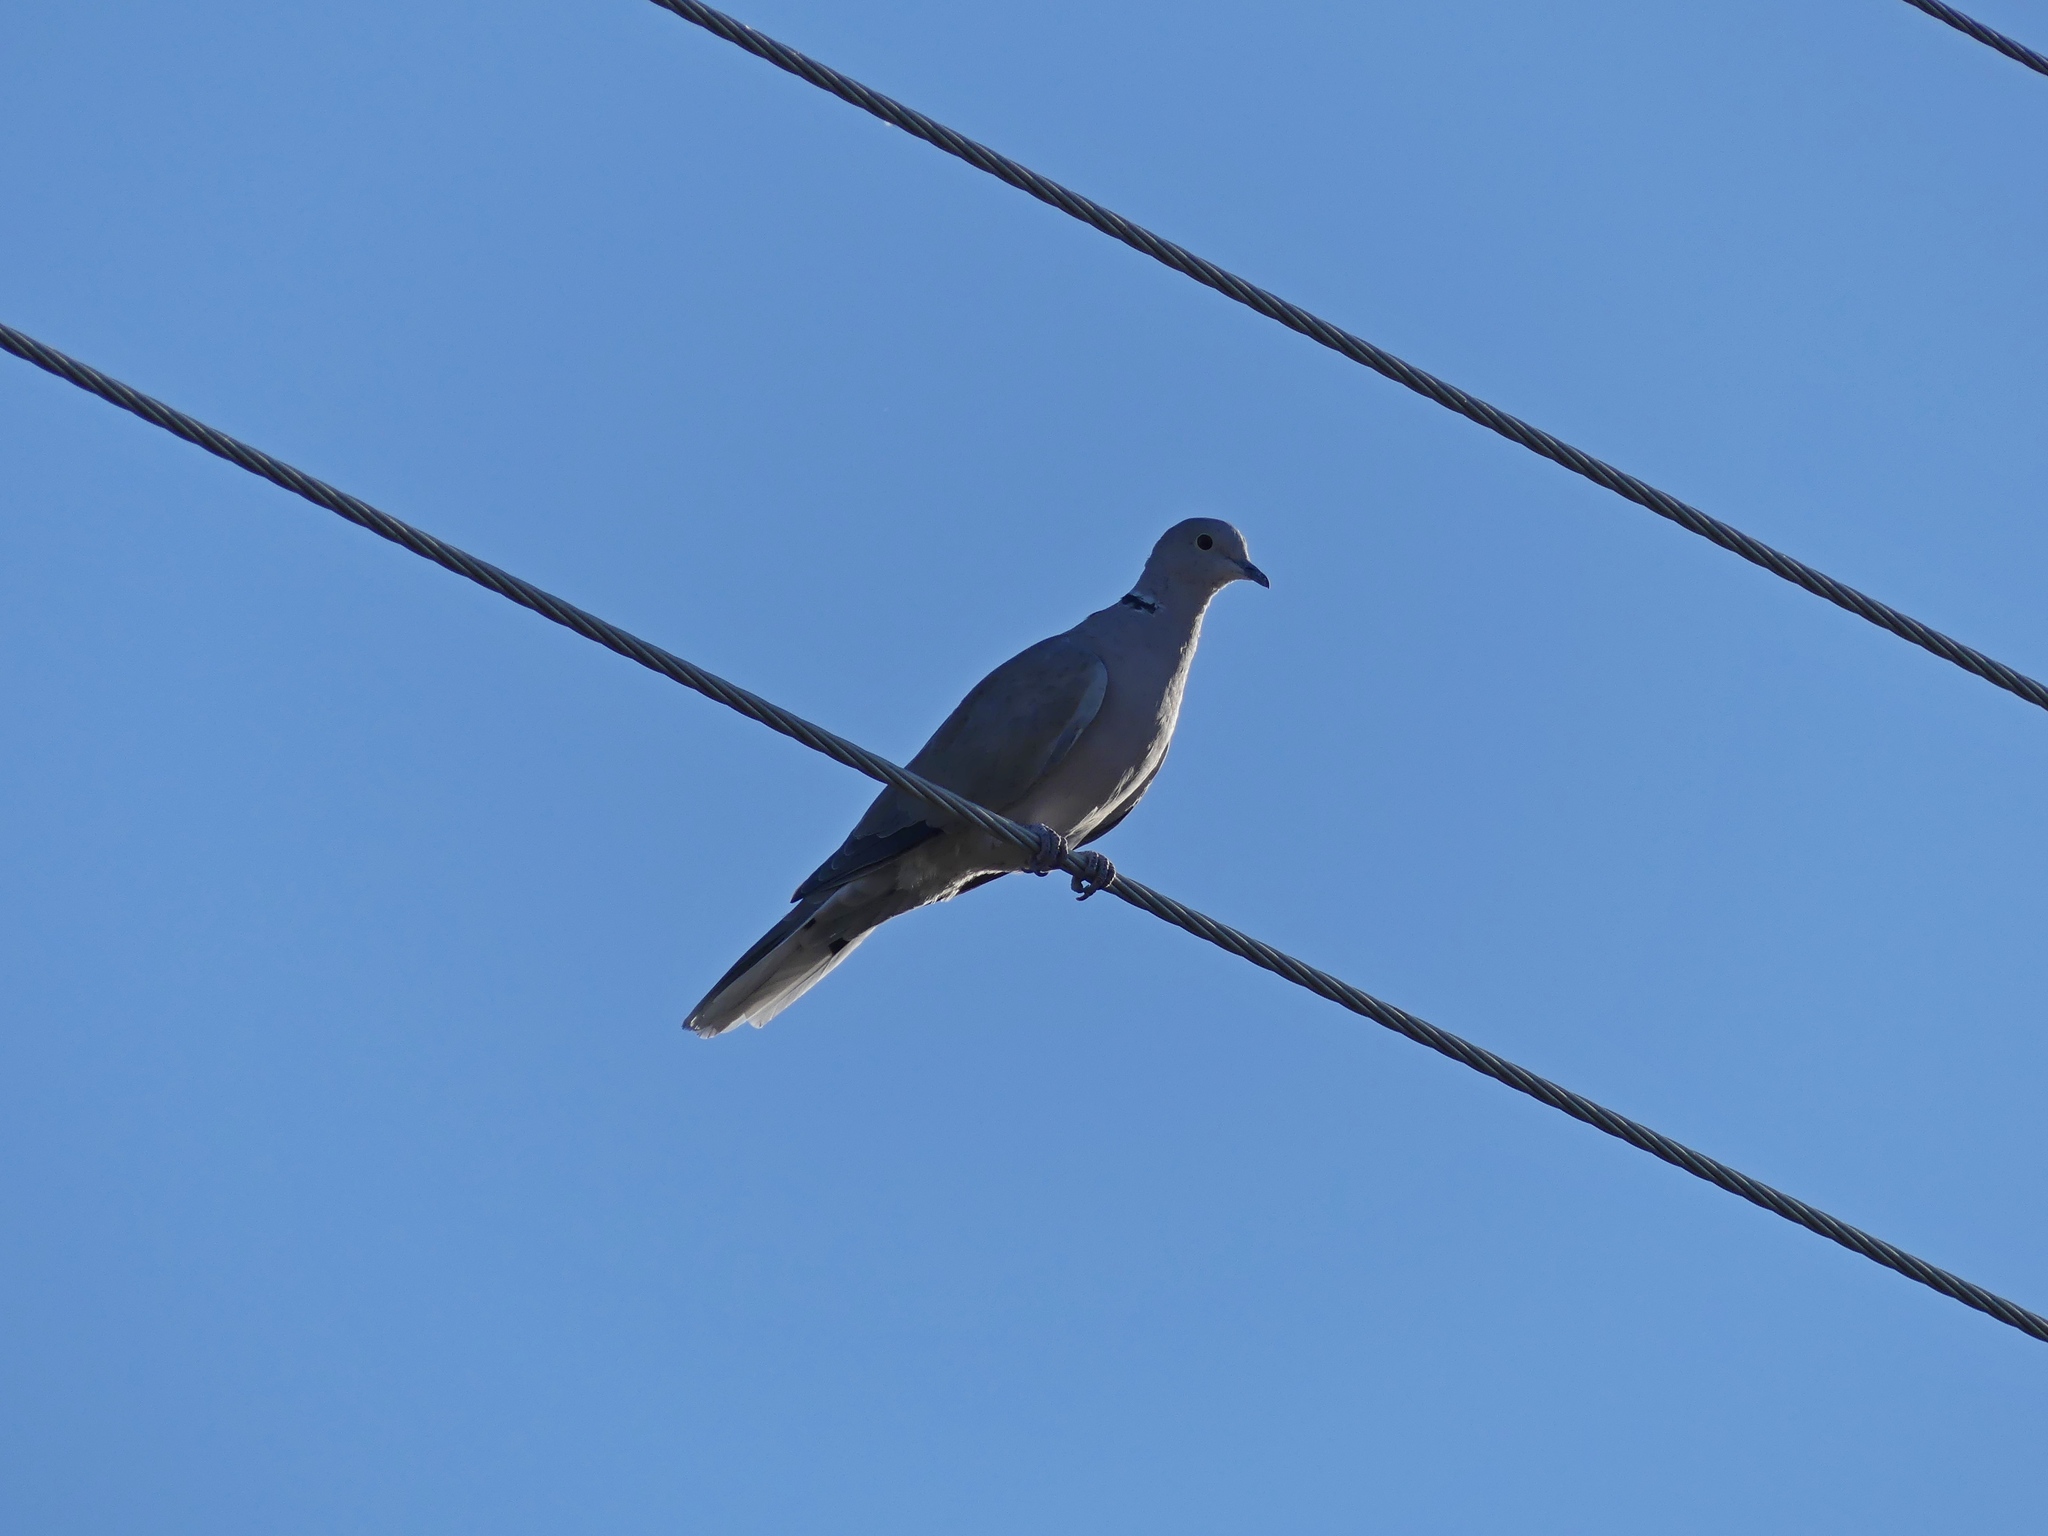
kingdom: Animalia
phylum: Chordata
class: Aves
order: Columbiformes
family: Columbidae
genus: Streptopelia
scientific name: Streptopelia decaocto
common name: Eurasian collared dove
